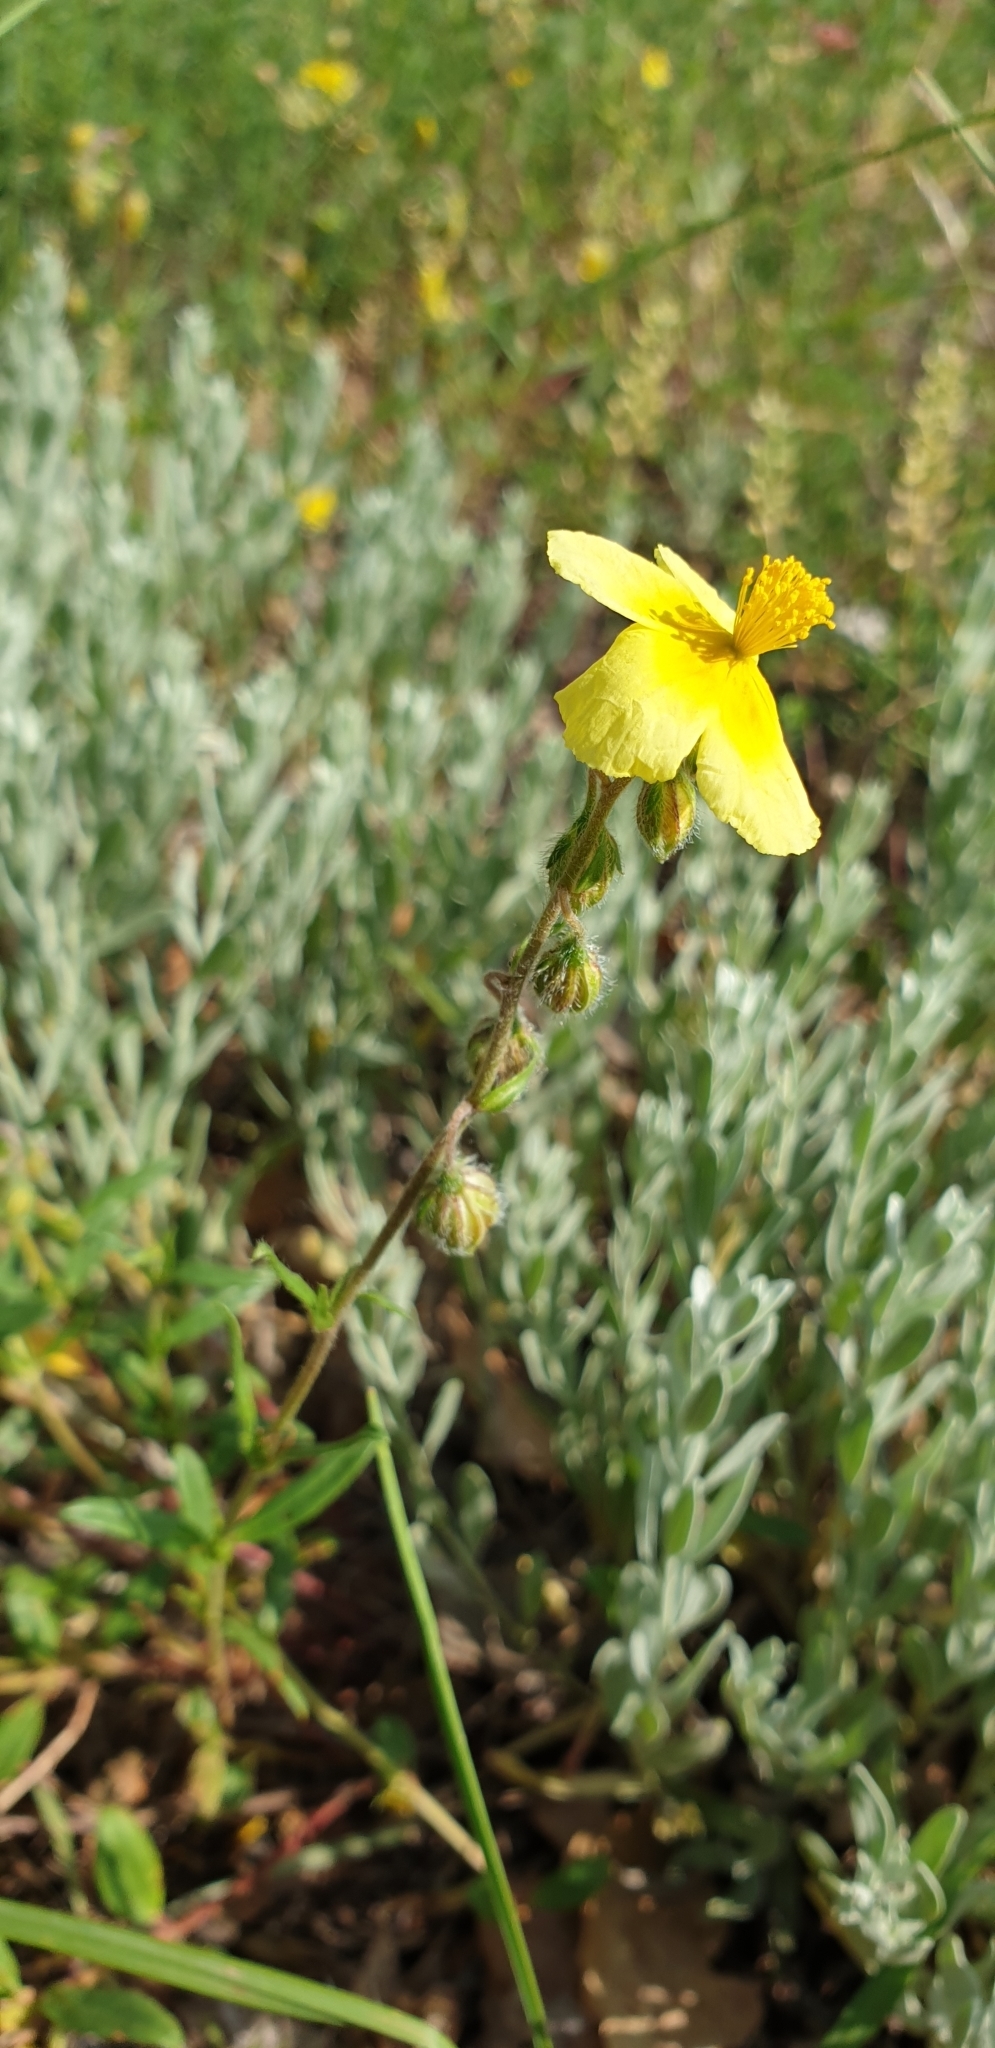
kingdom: Plantae
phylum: Tracheophyta
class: Magnoliopsida
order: Malvales
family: Cistaceae
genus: Helianthemum
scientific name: Helianthemum nummularium
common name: Common rock-rose
